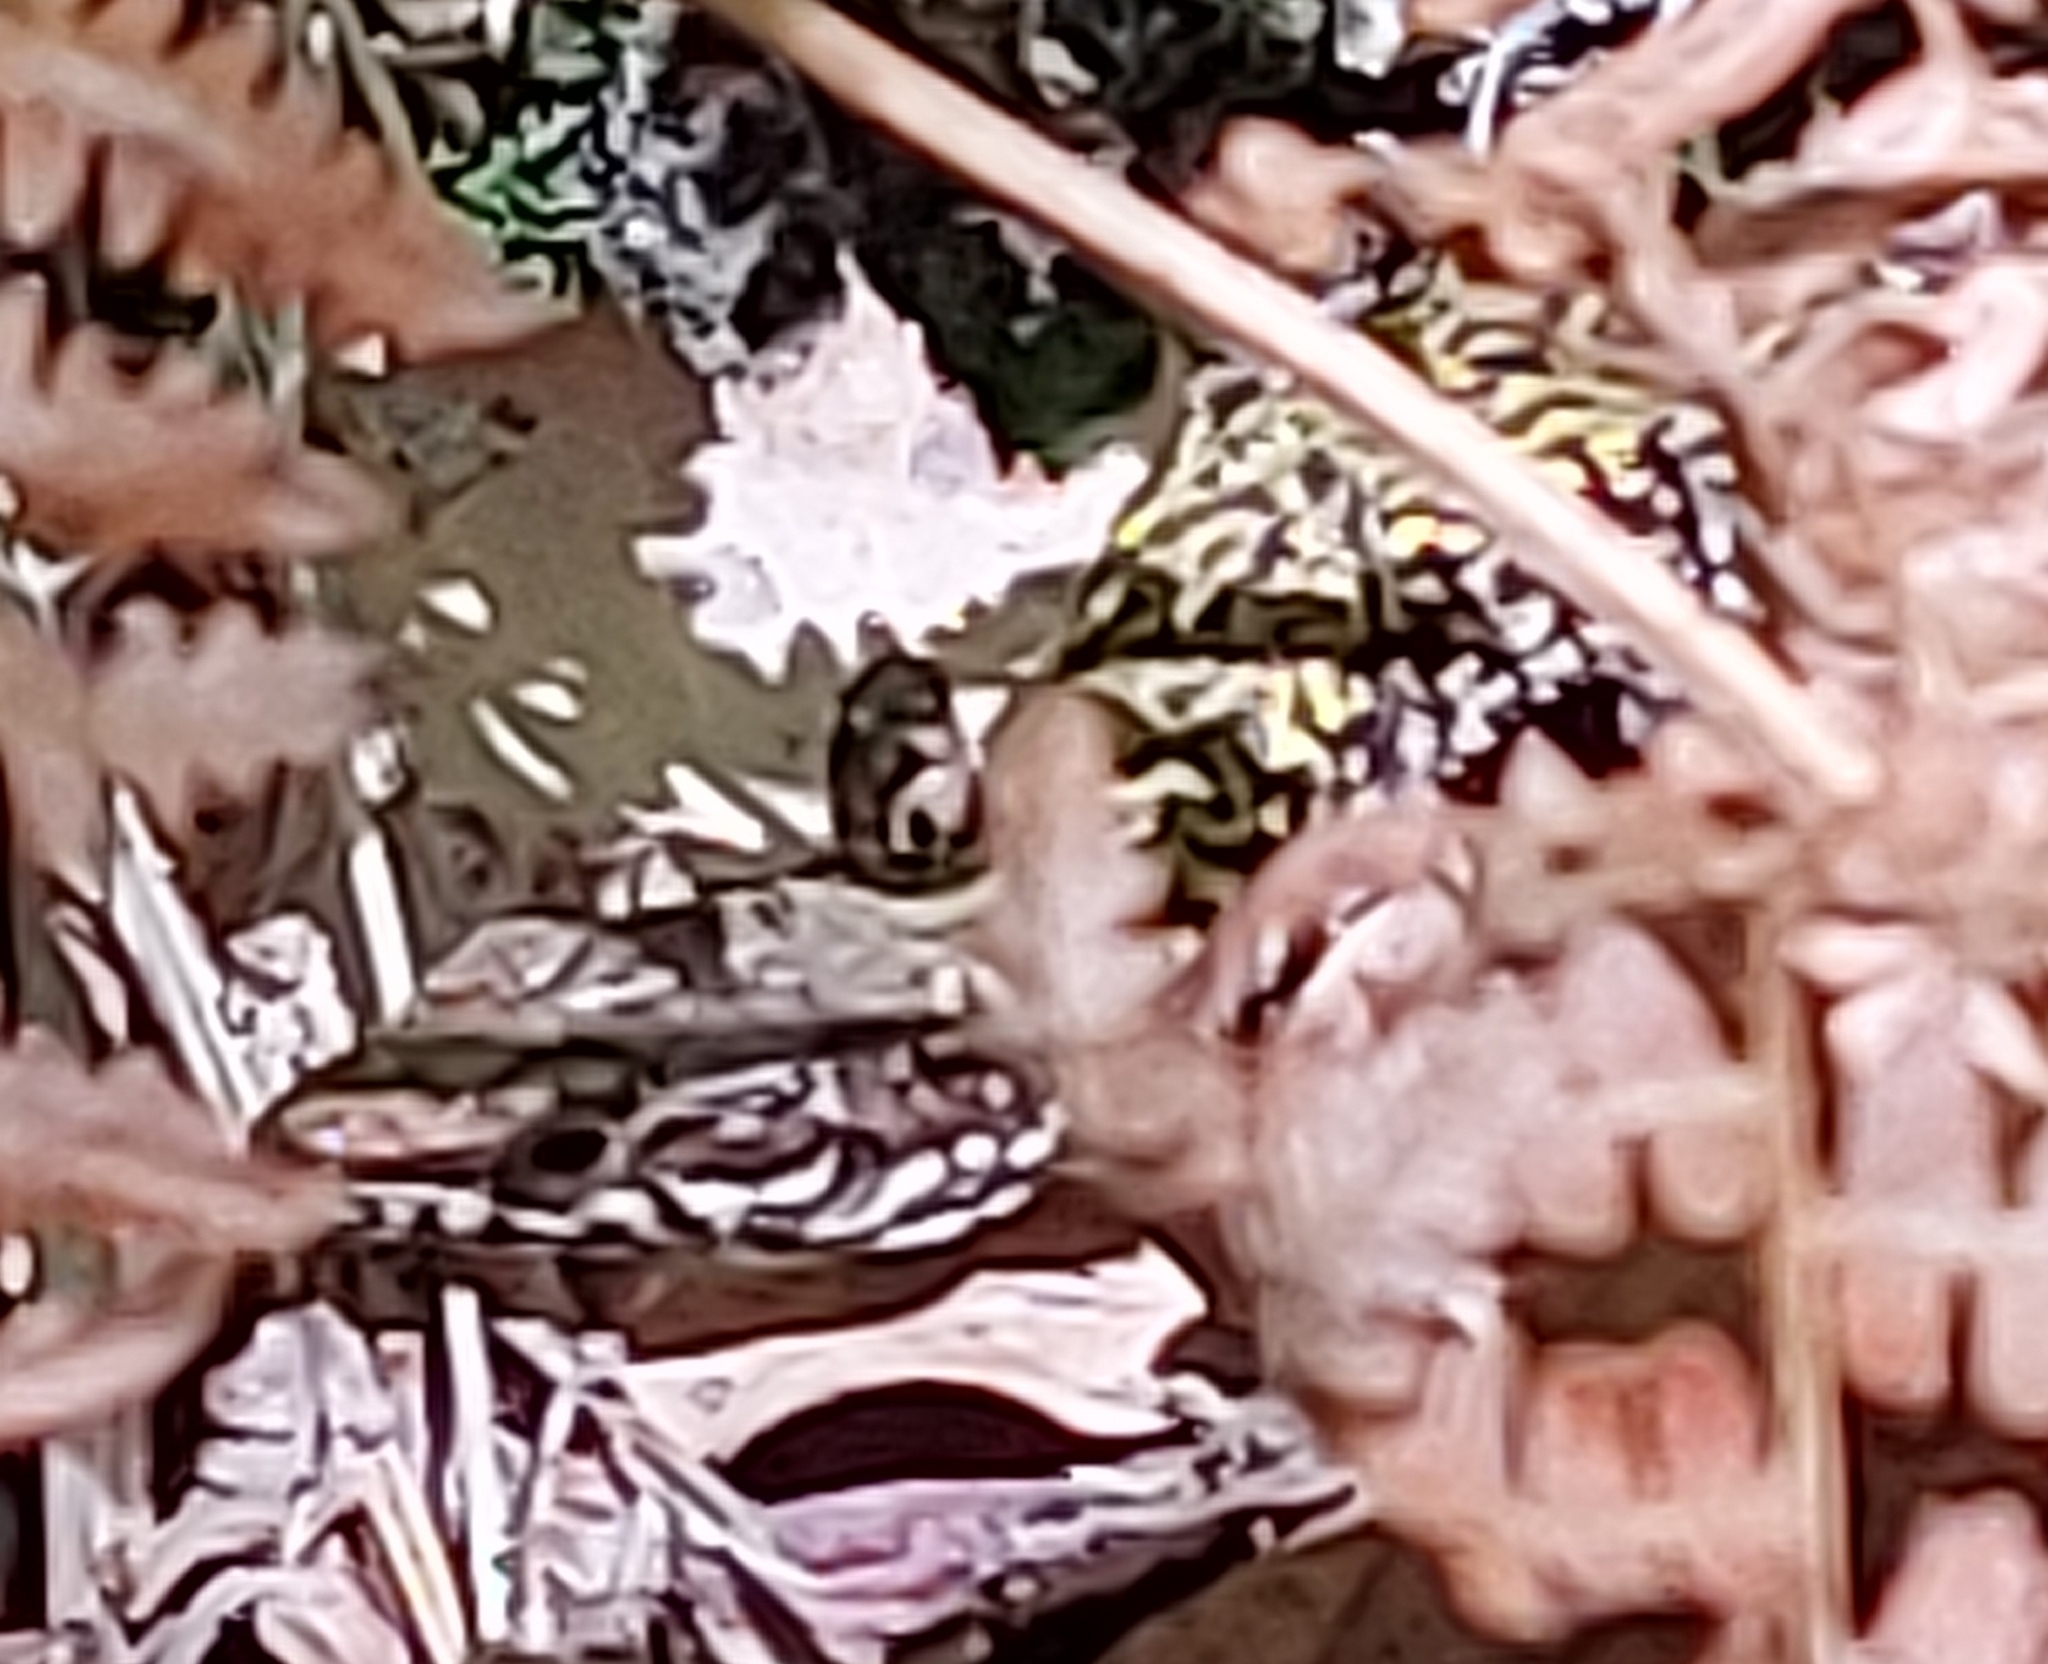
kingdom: Animalia
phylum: Chordata
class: Squamata
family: Lacertidae
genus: Podarcis
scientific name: Podarcis muralis
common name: Common wall lizard
